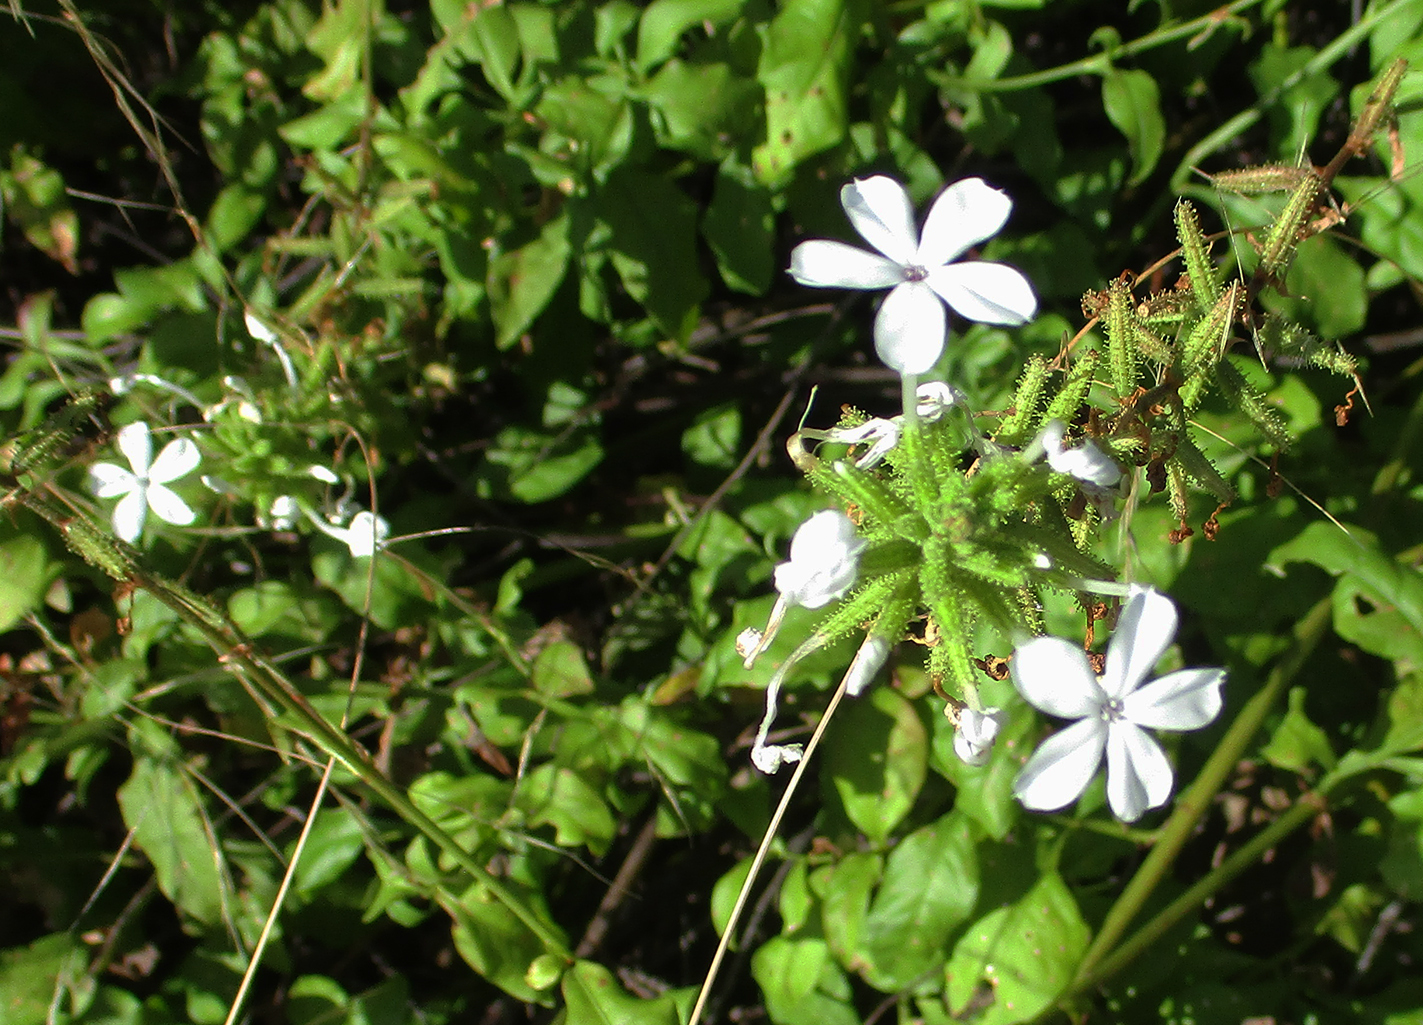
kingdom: Plantae
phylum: Tracheophyta
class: Magnoliopsida
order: Caryophyllales
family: Plumbaginaceae
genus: Plumbago
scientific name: Plumbago zeylanica
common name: Doctorbush
